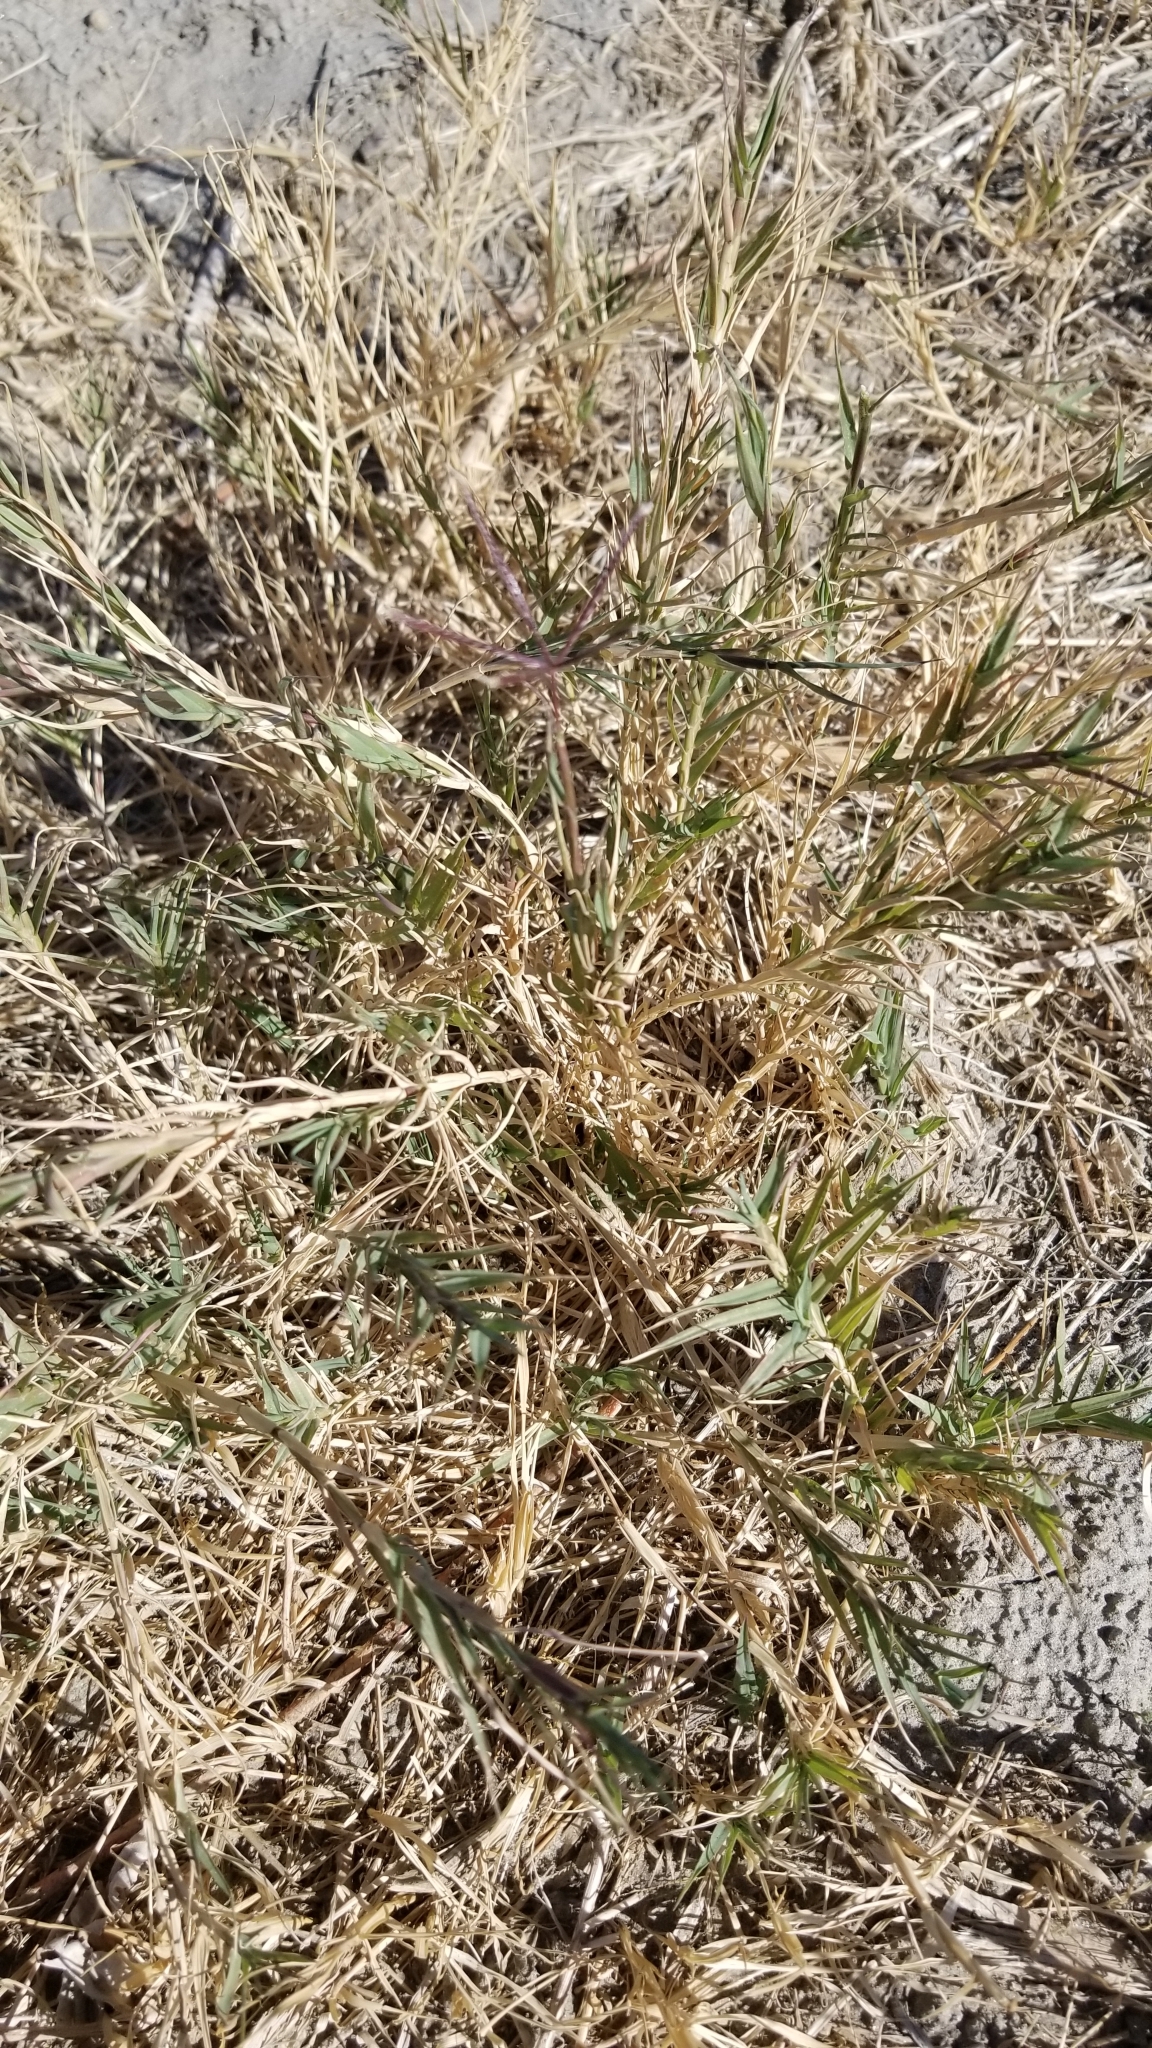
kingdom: Plantae
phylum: Tracheophyta
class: Liliopsida
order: Poales
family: Poaceae
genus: Distichlis
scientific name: Distichlis spicata
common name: Saltgrass
